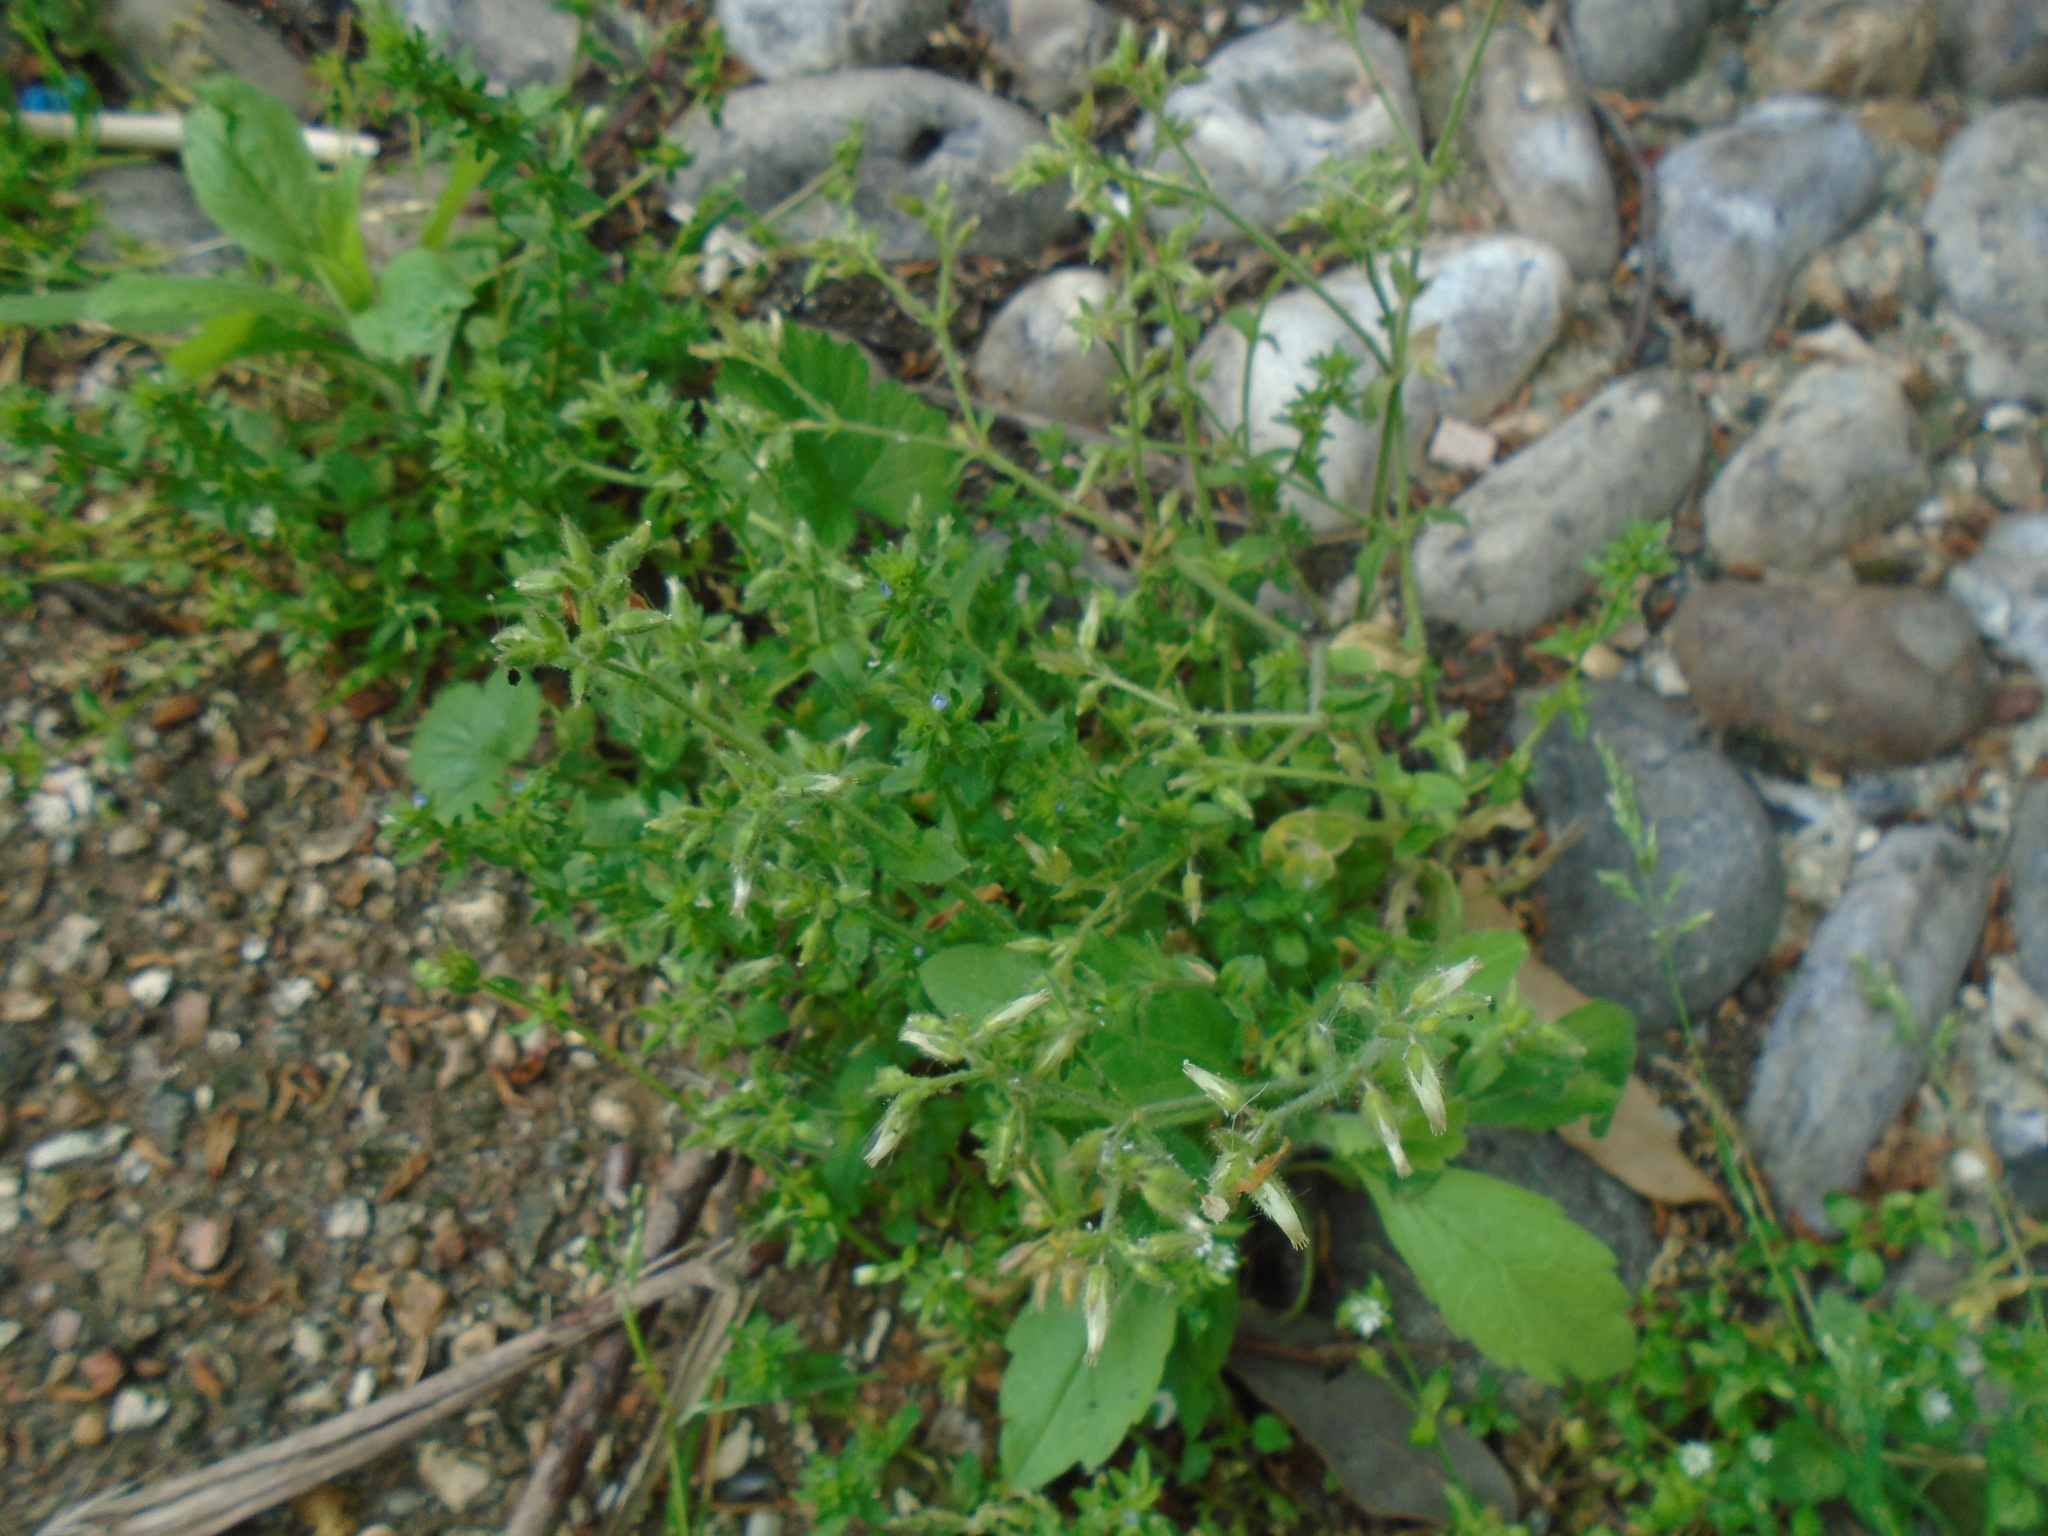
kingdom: Plantae
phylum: Tracheophyta
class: Magnoliopsida
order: Caryophyllales
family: Caryophyllaceae
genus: Cerastium
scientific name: Cerastium glomeratum
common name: Sticky chickweed
